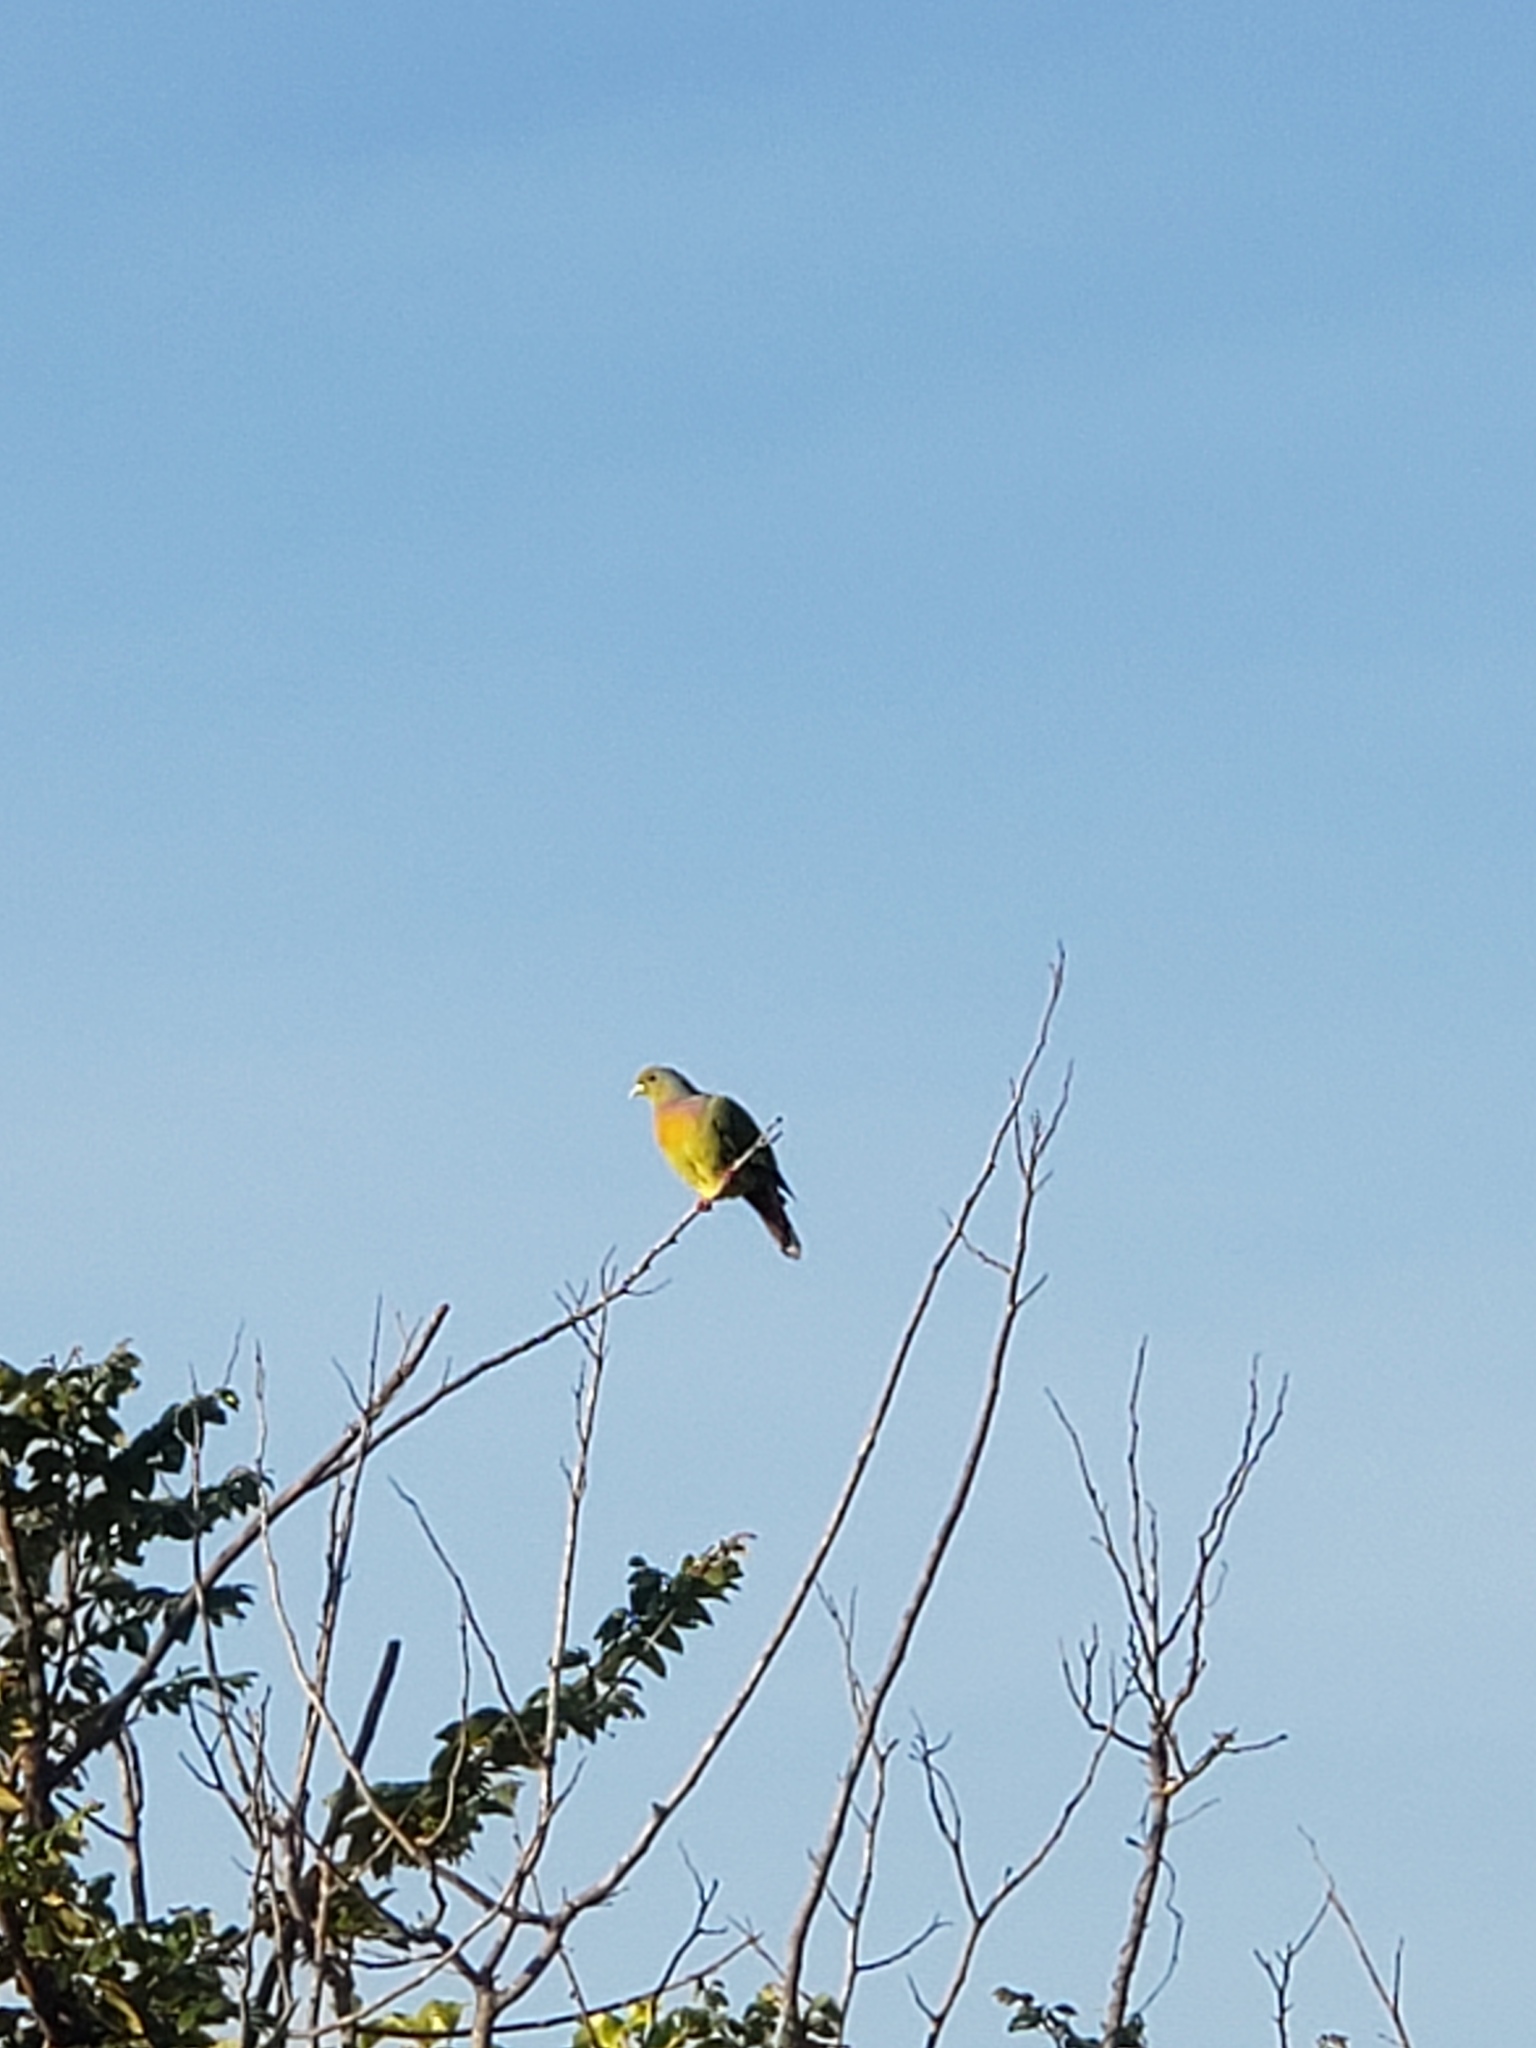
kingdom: Animalia
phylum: Chordata
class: Aves
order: Columbiformes
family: Columbidae
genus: Treron
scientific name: Treron bicinctus
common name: Orange-breasted green pigeon
